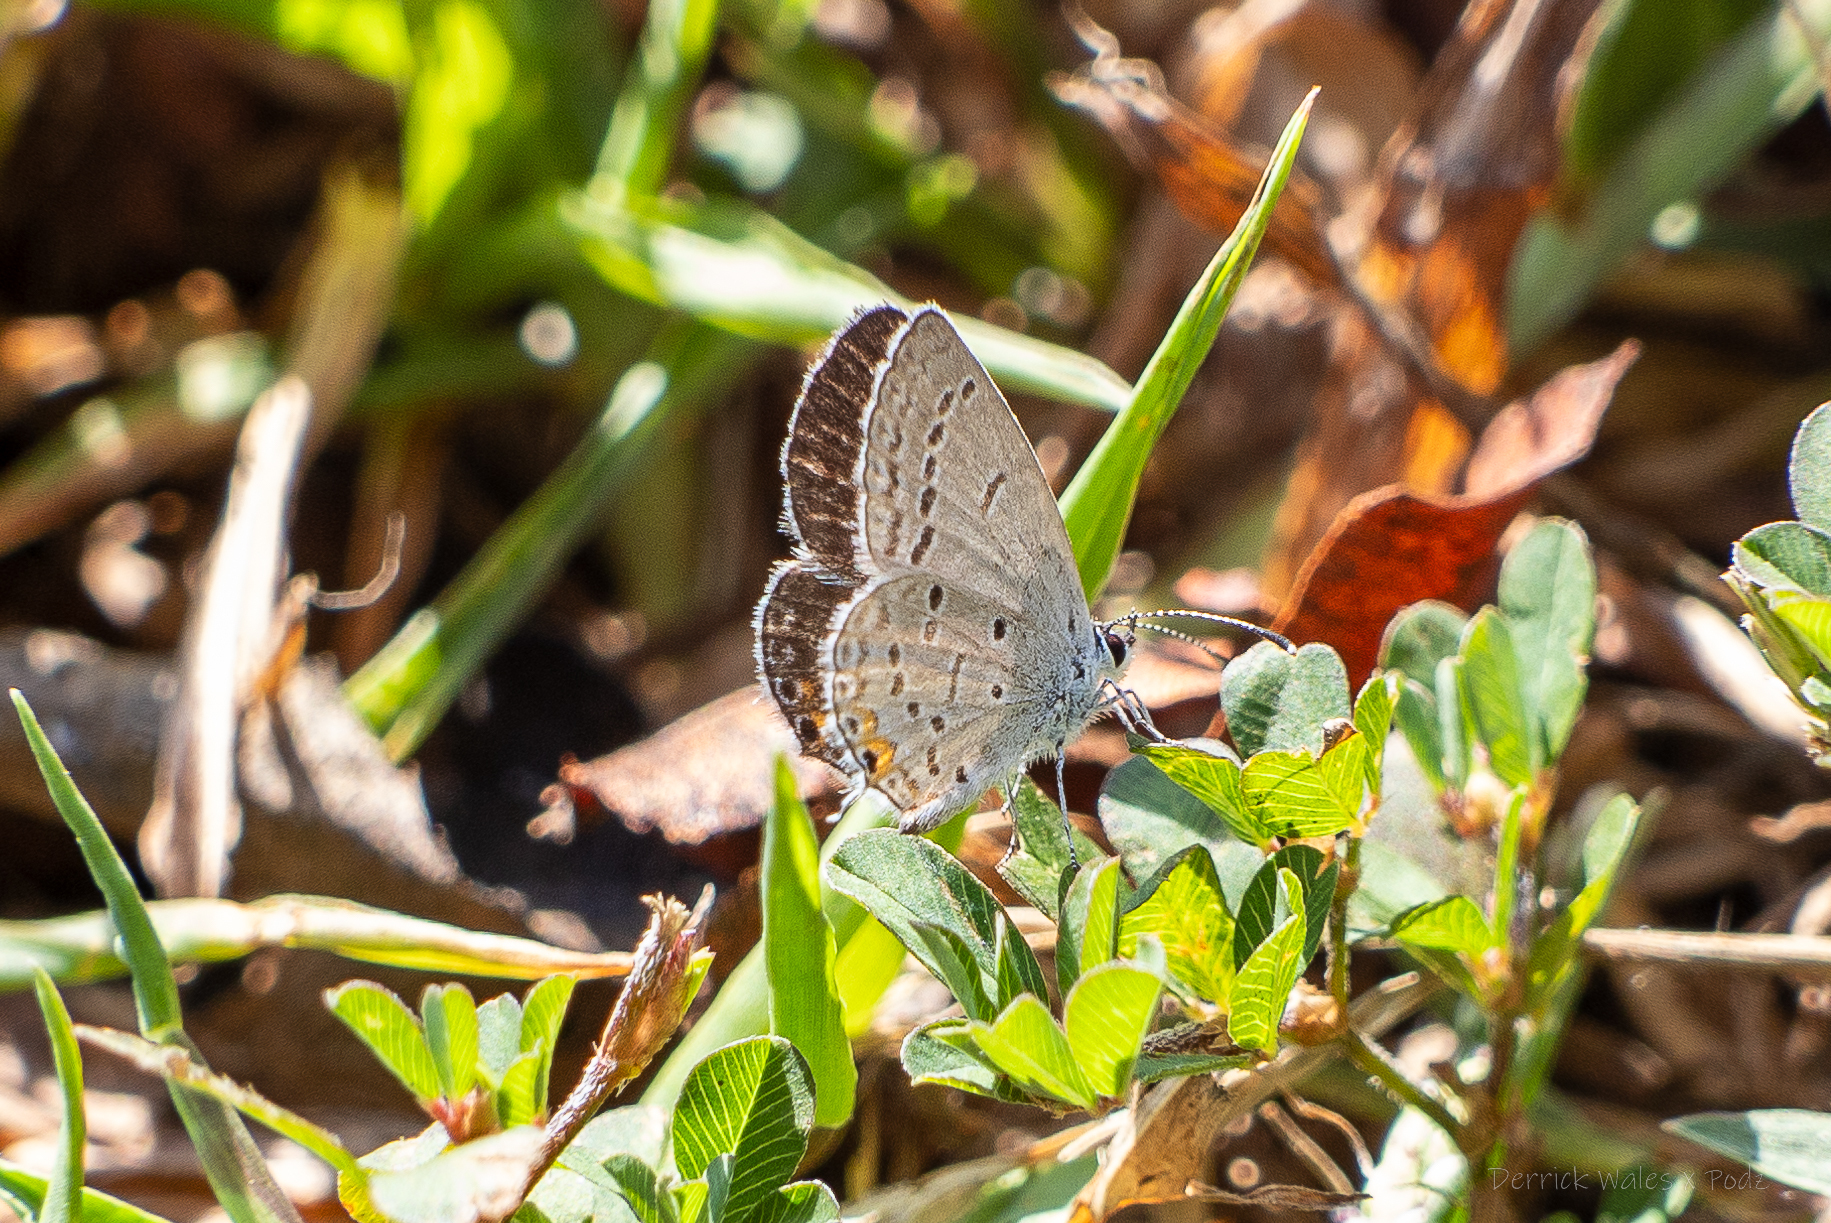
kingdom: Animalia
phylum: Arthropoda
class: Insecta
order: Lepidoptera
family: Lycaenidae
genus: Elkalyce
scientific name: Elkalyce comyntas
